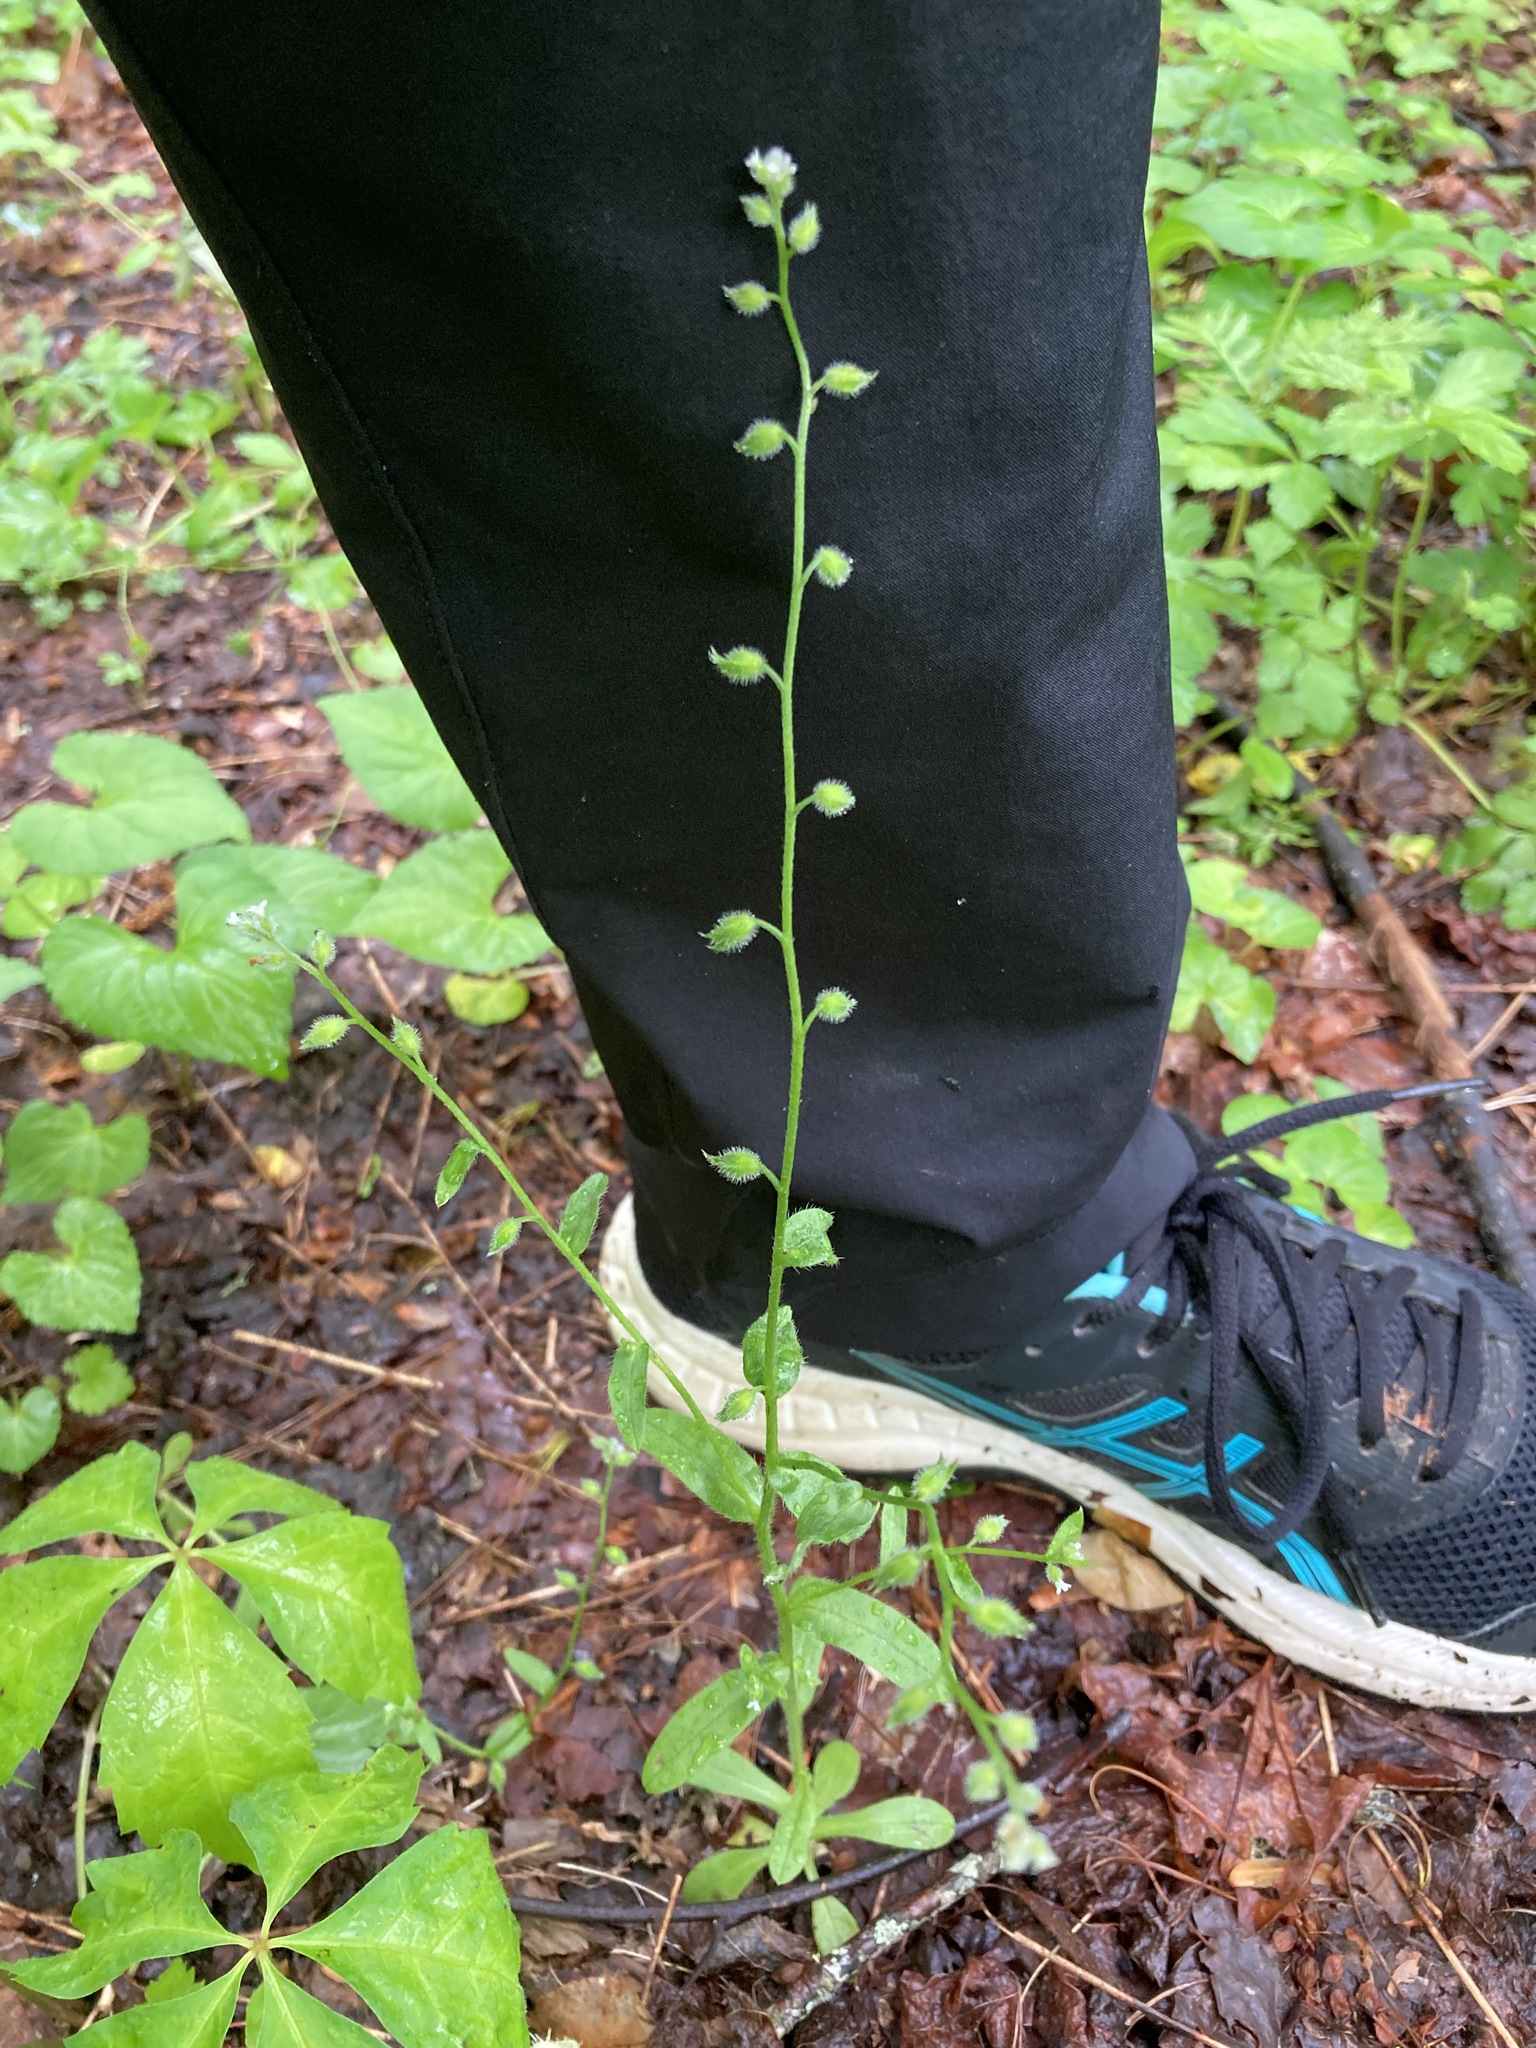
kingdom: Plantae
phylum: Tracheophyta
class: Magnoliopsida
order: Boraginales
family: Boraginaceae
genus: Myosotis
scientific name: Myosotis macrosperma
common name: Large-seed forget-me-not
